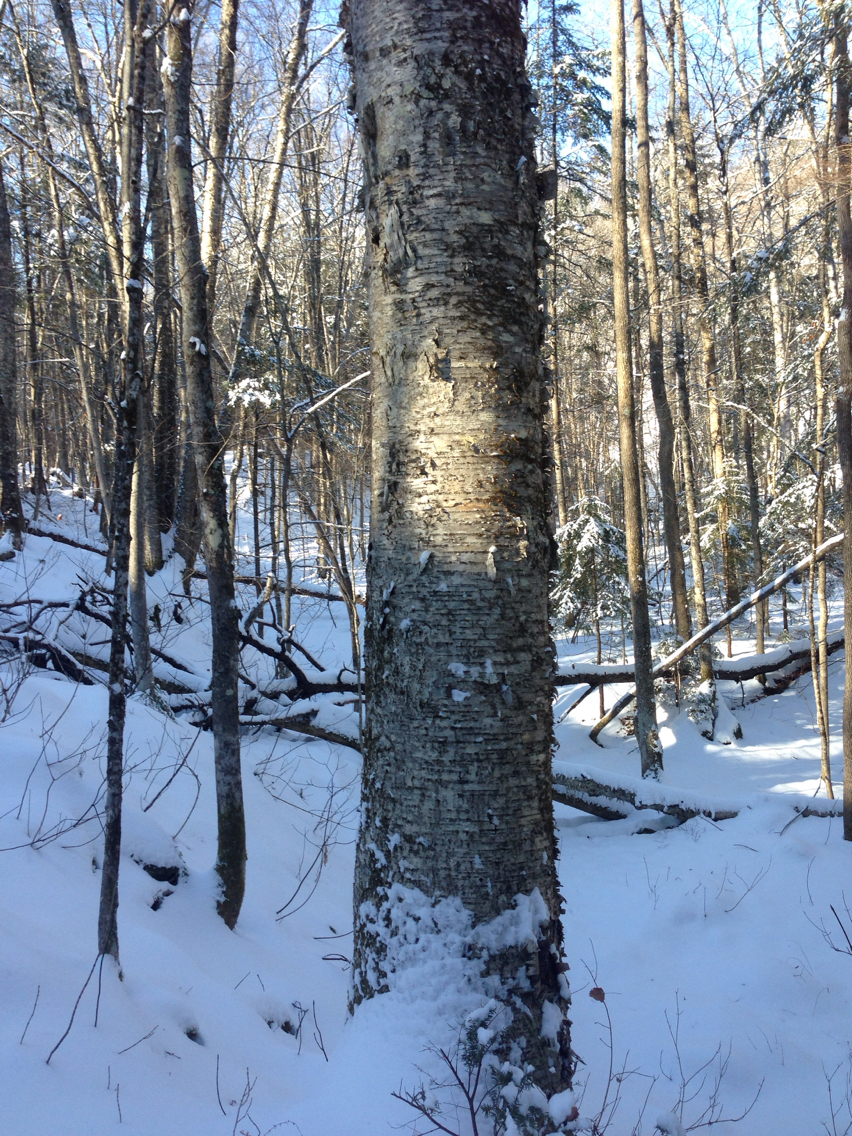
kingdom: Plantae
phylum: Tracheophyta
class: Magnoliopsida
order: Fagales
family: Betulaceae
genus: Betula
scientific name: Betula alleghaniensis
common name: Yellow birch
